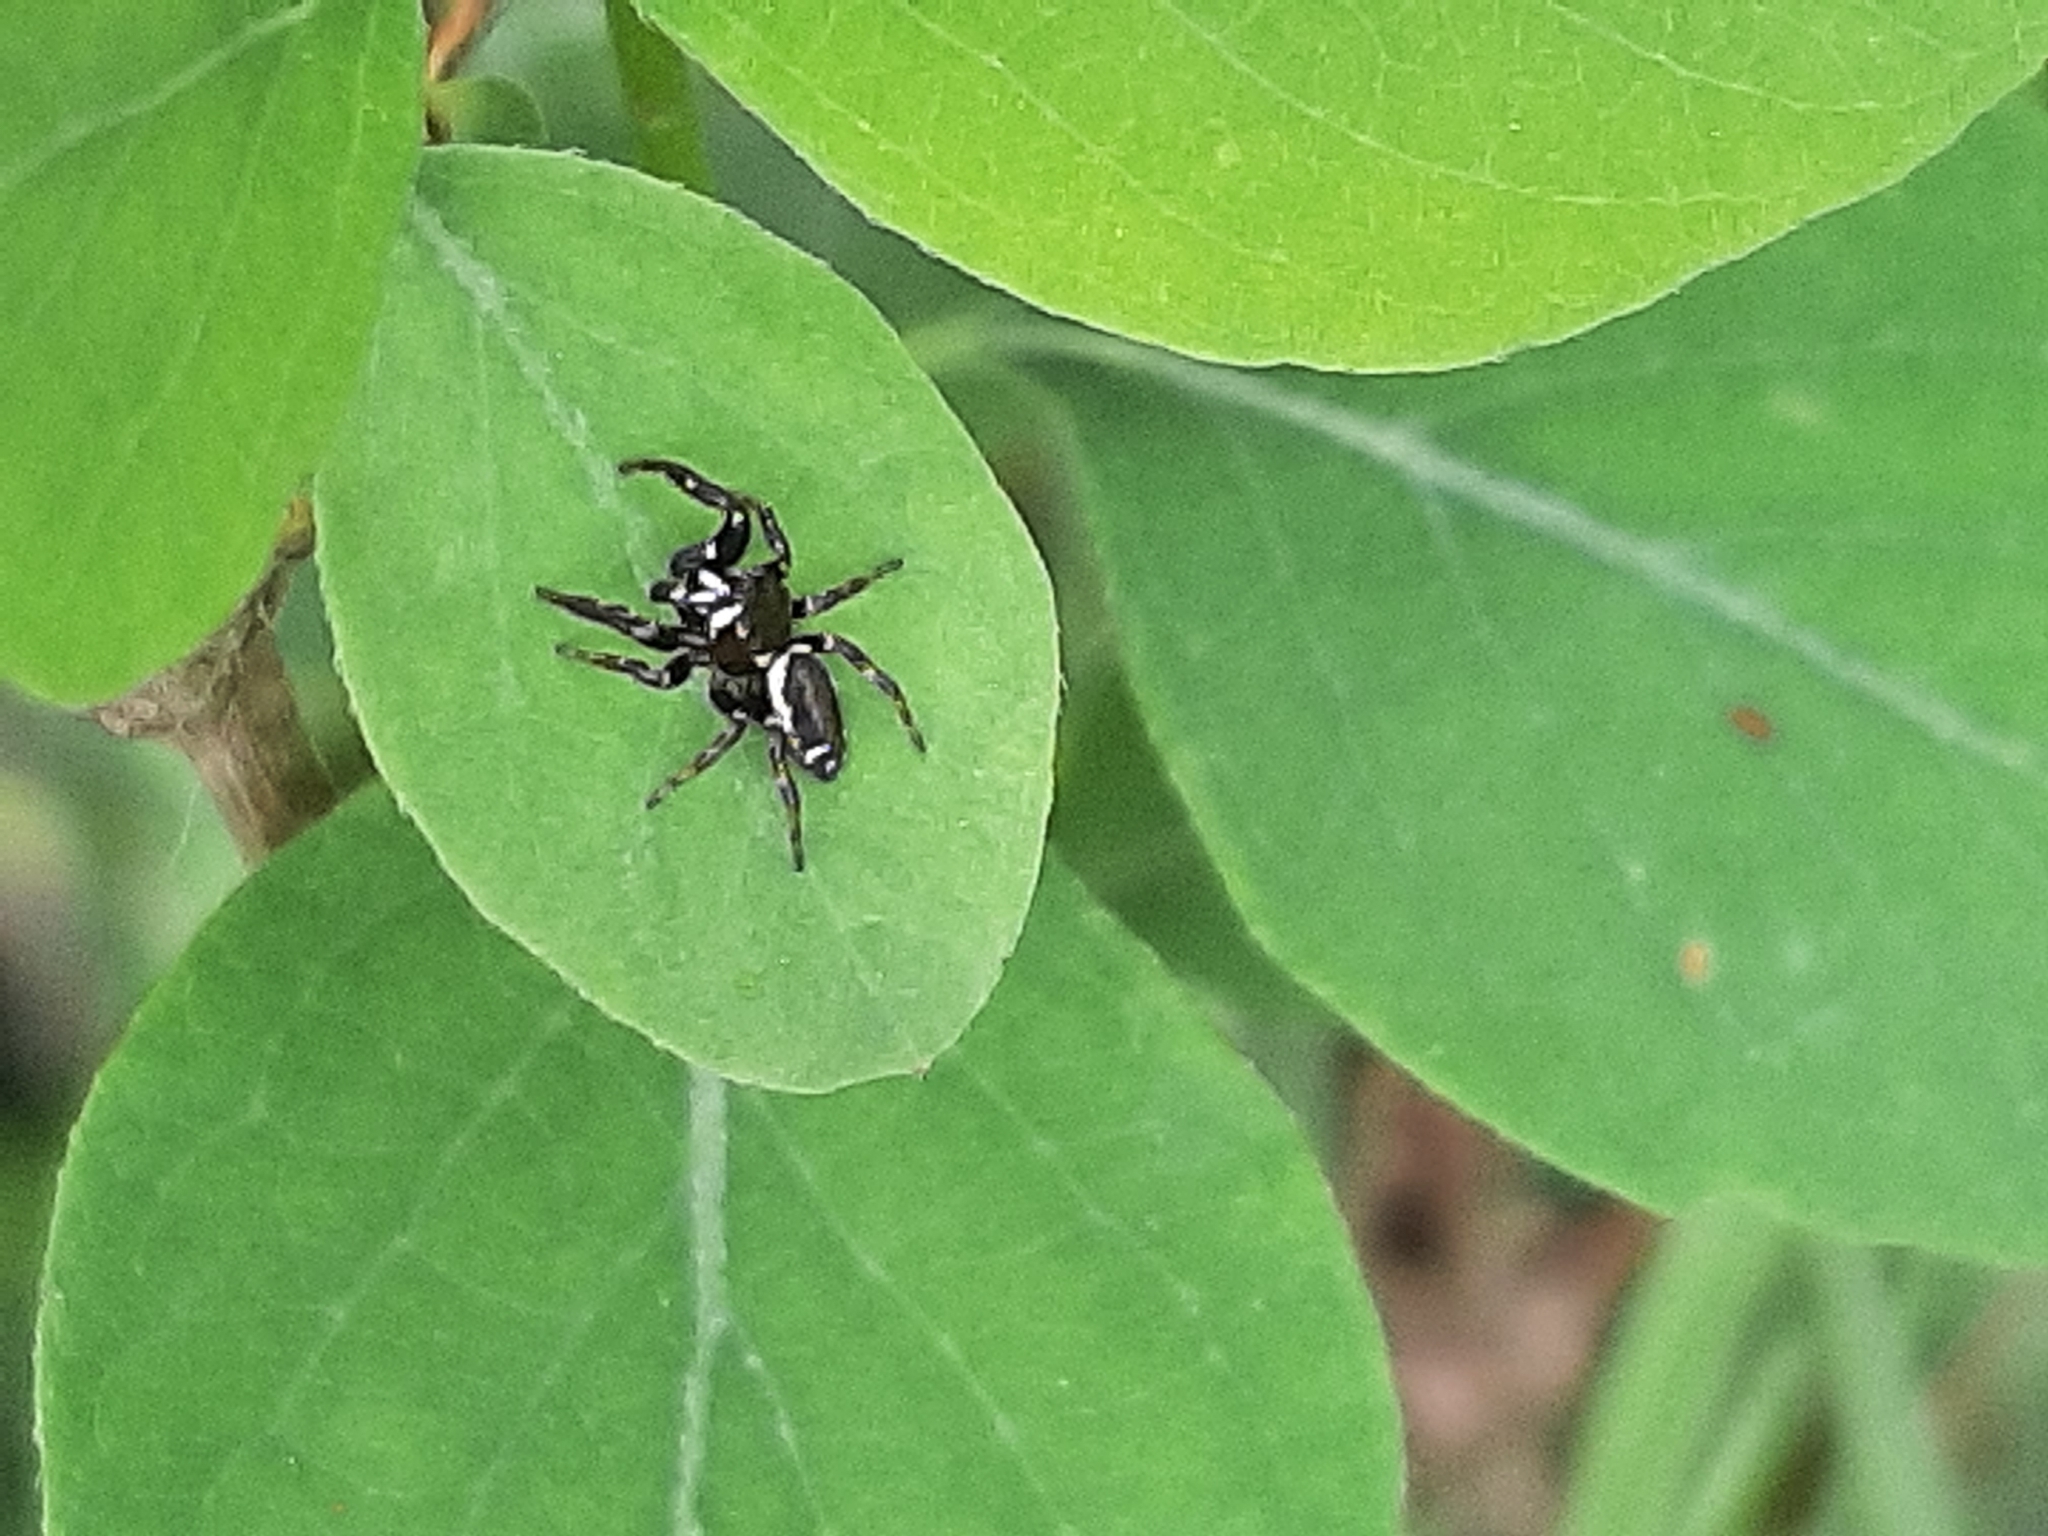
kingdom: Animalia
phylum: Arthropoda
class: Arachnida
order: Araneae
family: Salticidae
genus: Metaphidippus
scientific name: Metaphidippus manni
